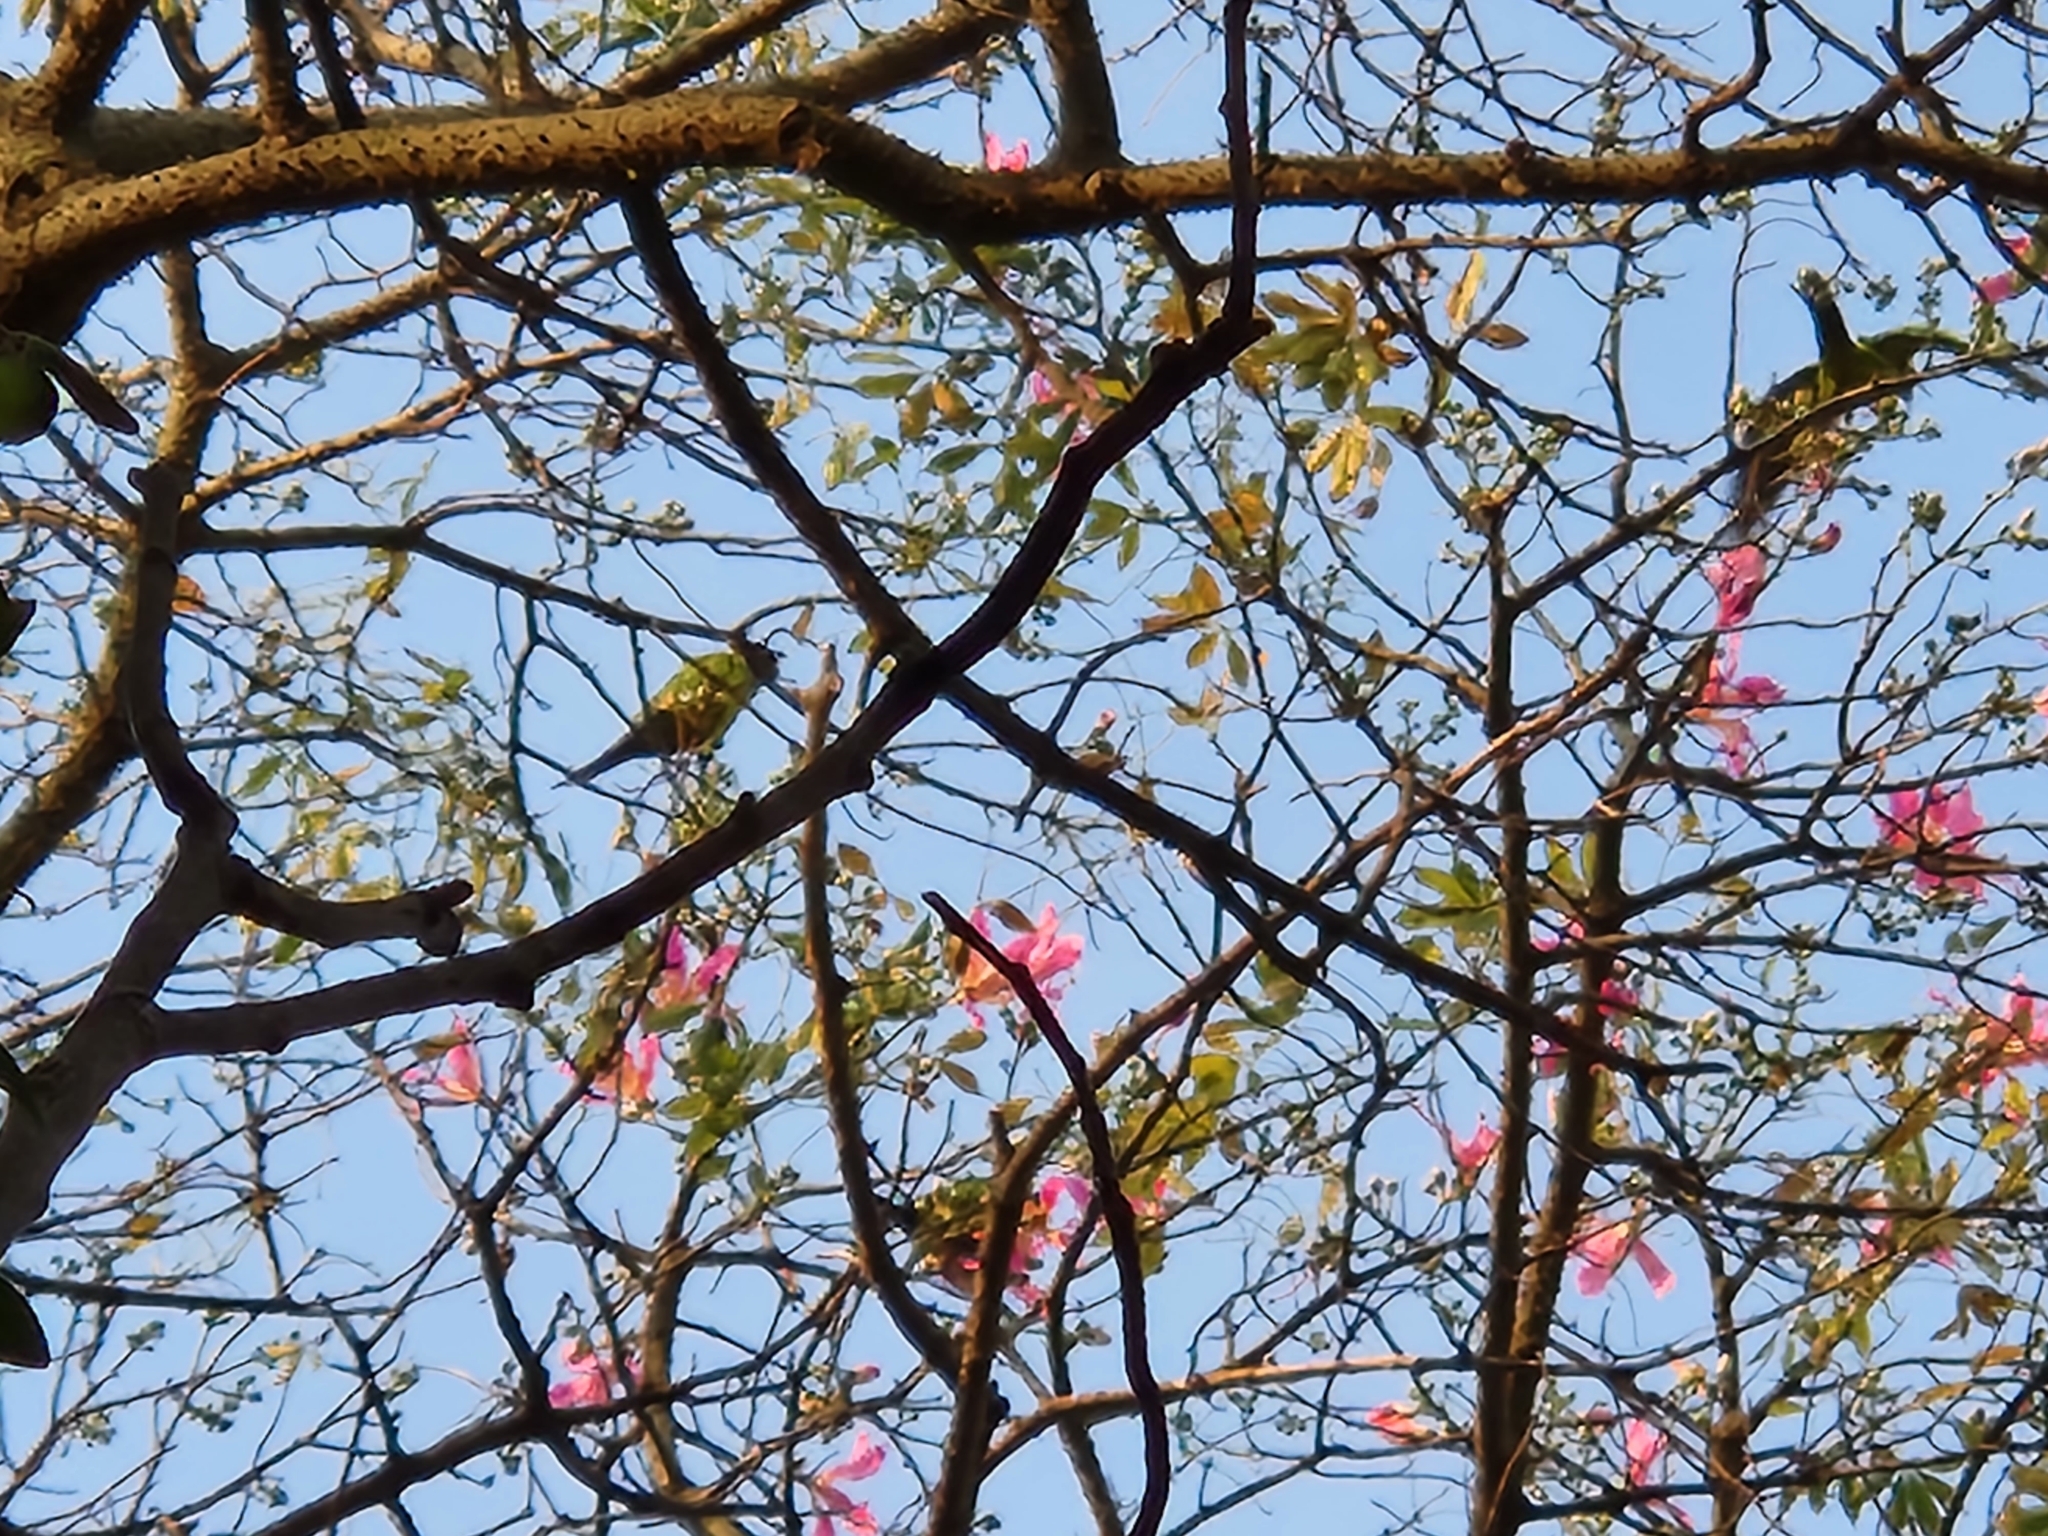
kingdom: Animalia
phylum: Chordata
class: Aves
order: Psittaciformes
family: Psittacidae
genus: Nandayus
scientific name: Nandayus nenday
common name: Nanday parakeet
